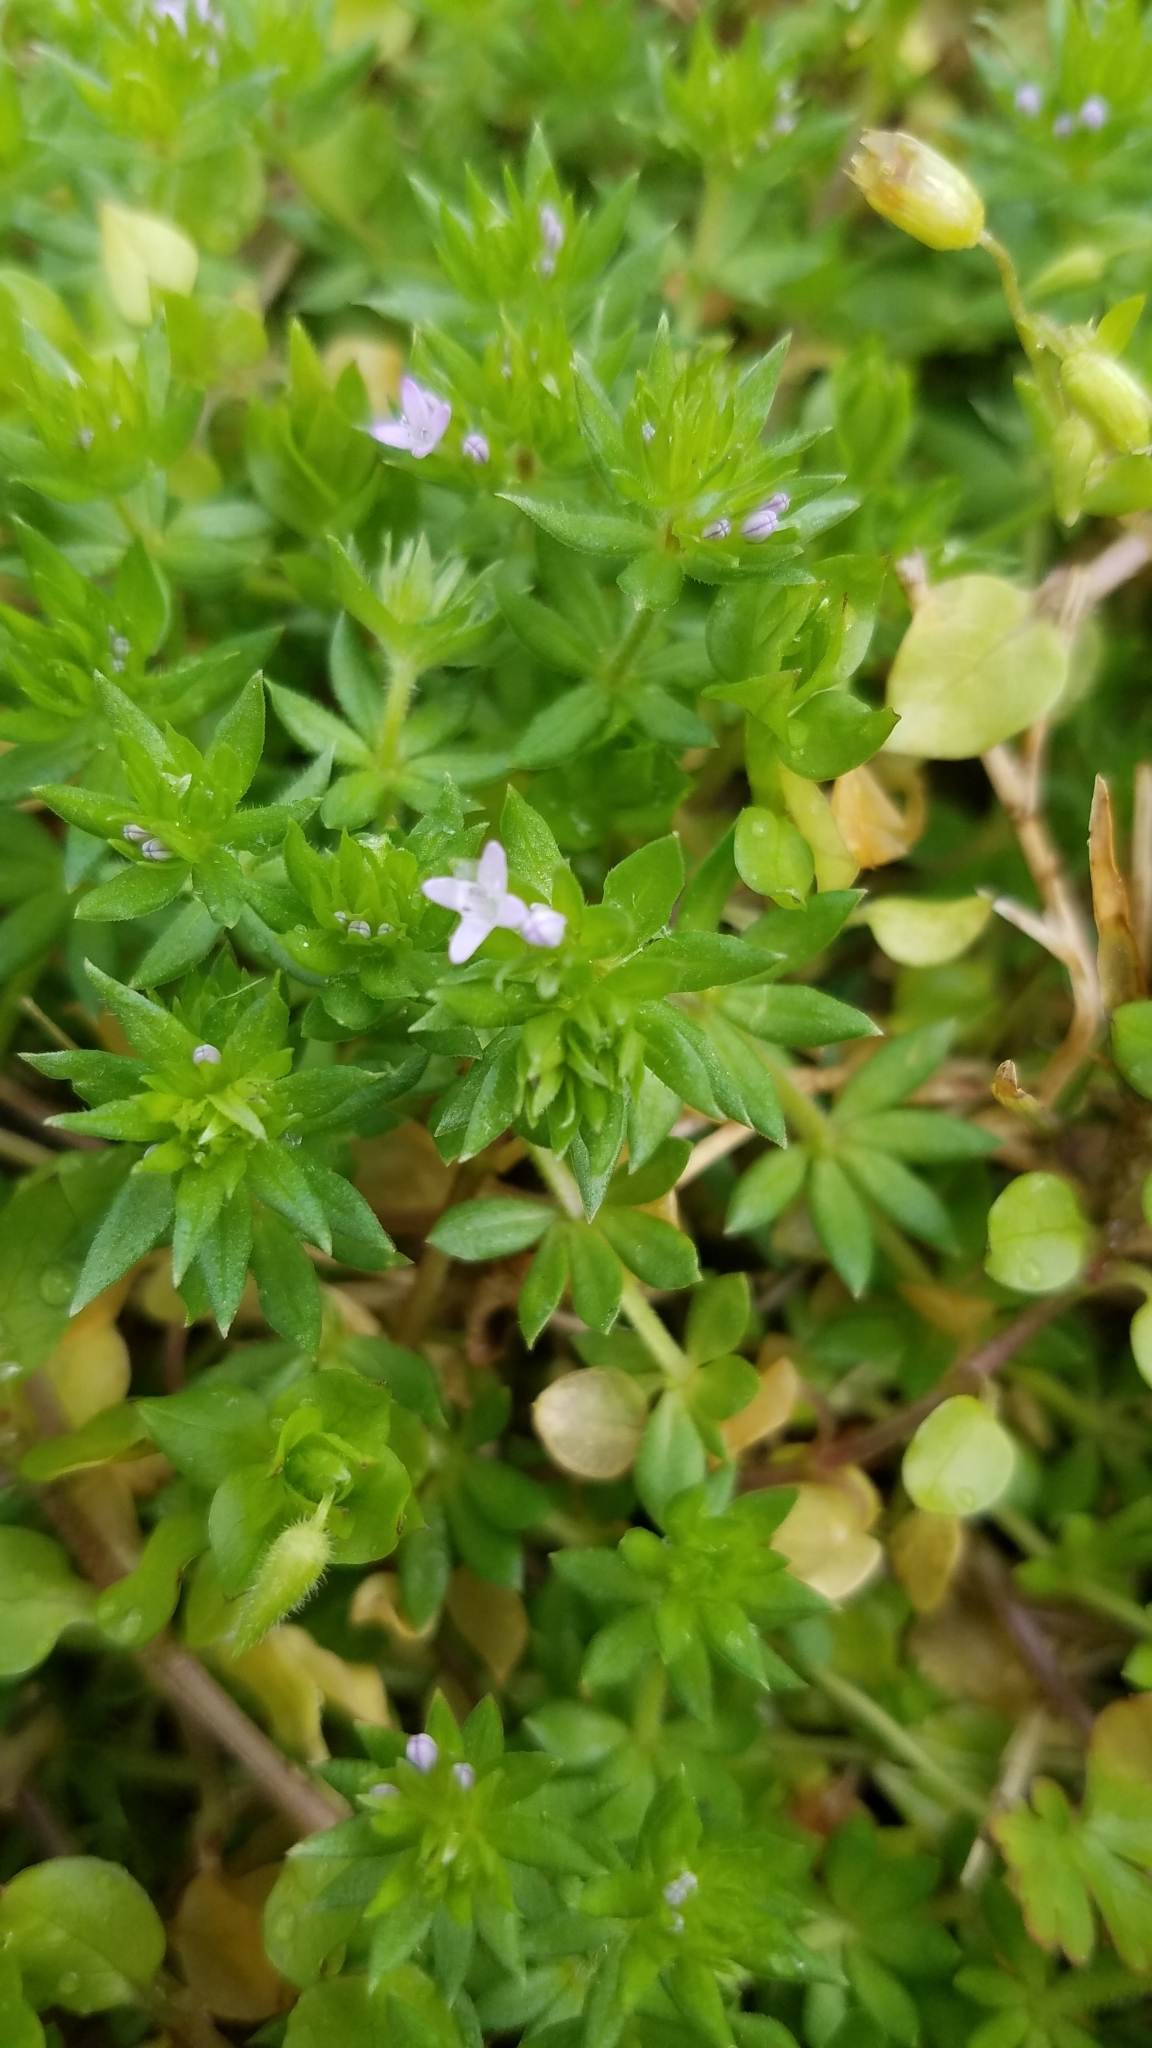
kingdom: Plantae
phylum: Tracheophyta
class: Magnoliopsida
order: Gentianales
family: Rubiaceae
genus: Sherardia
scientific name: Sherardia arvensis
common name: Field madder
